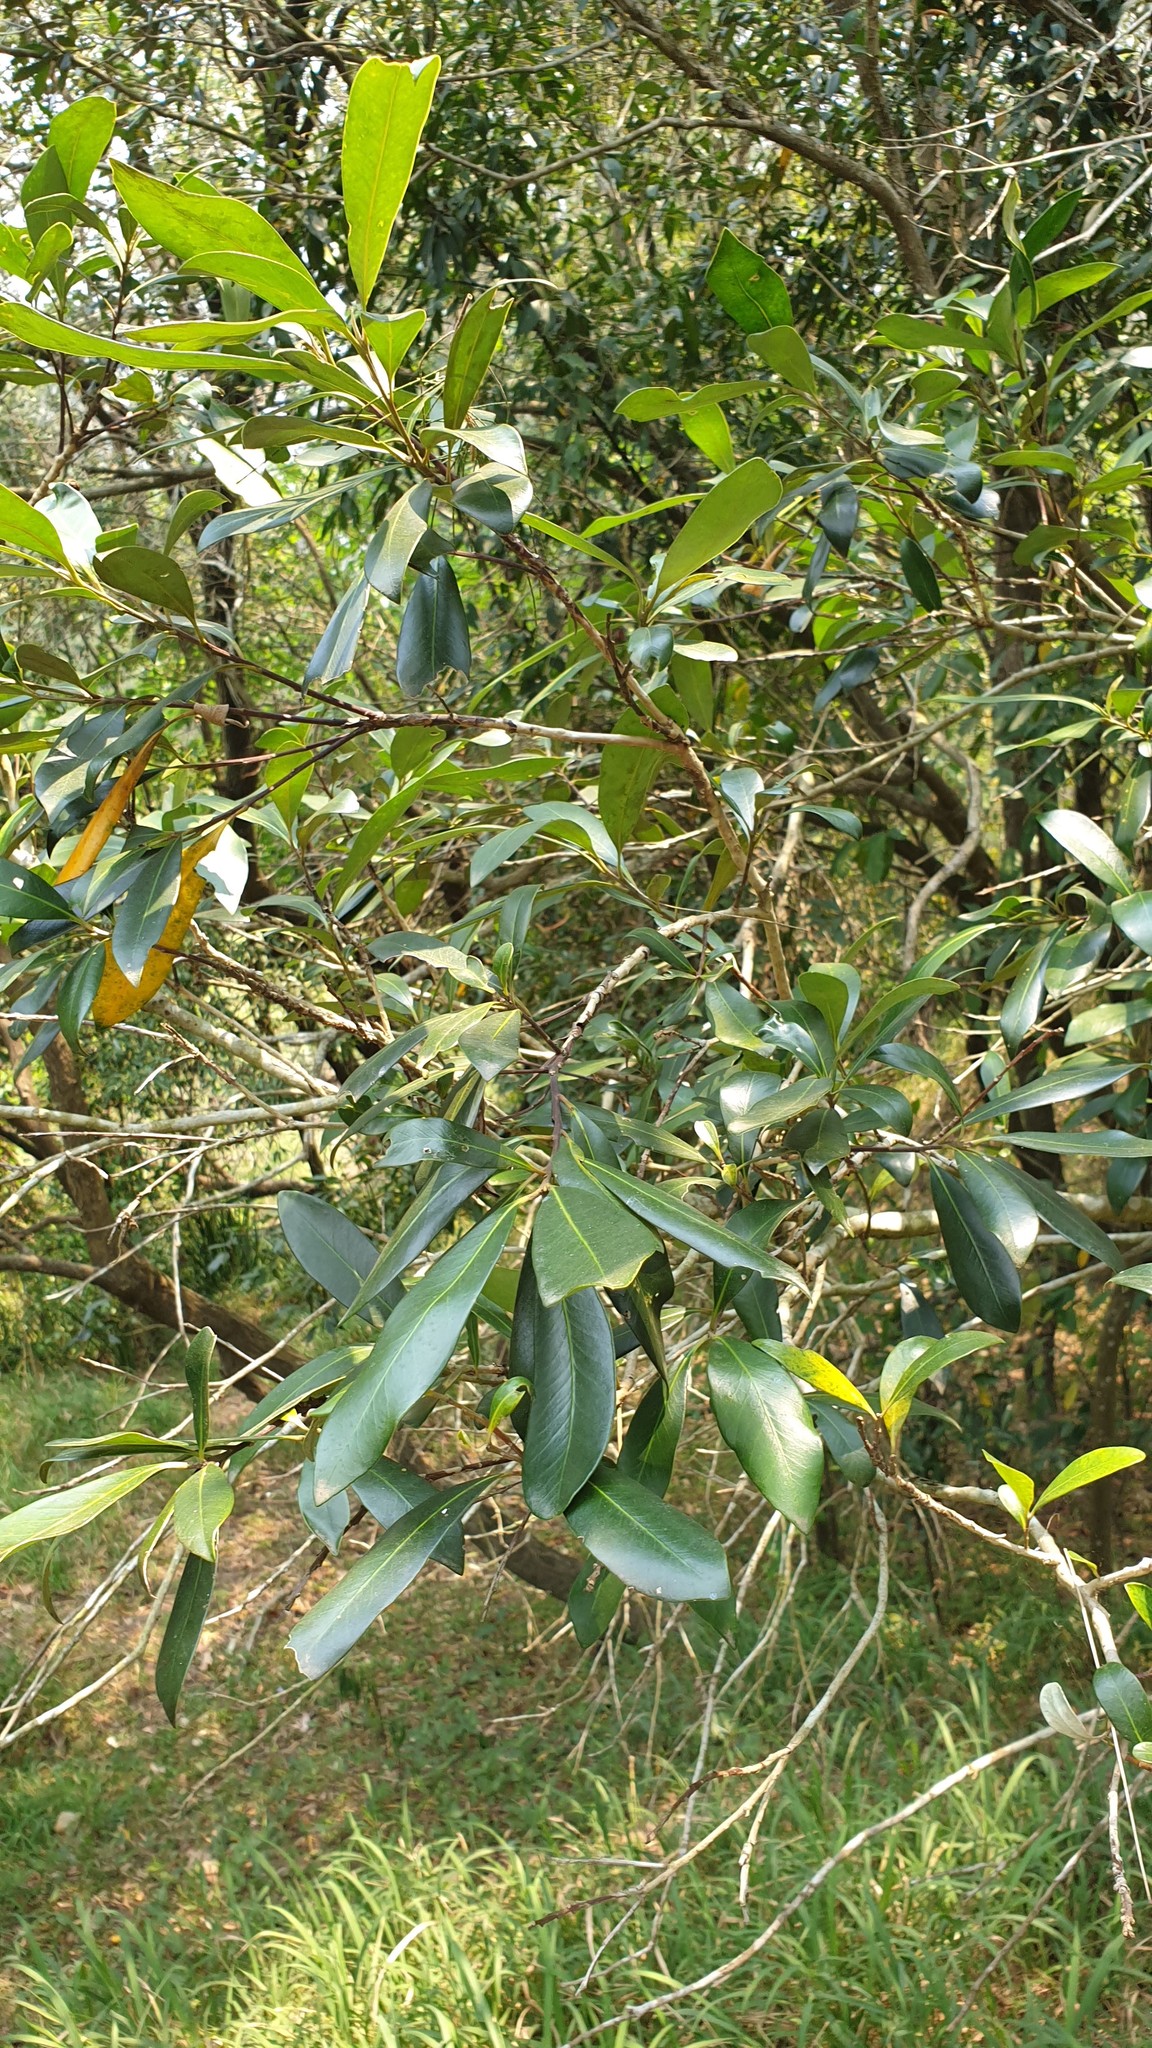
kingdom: Plantae
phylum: Tracheophyta
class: Magnoliopsida
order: Myrtales
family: Myrtaceae
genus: Tristaniopsis
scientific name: Tristaniopsis laurina
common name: Water-gum
